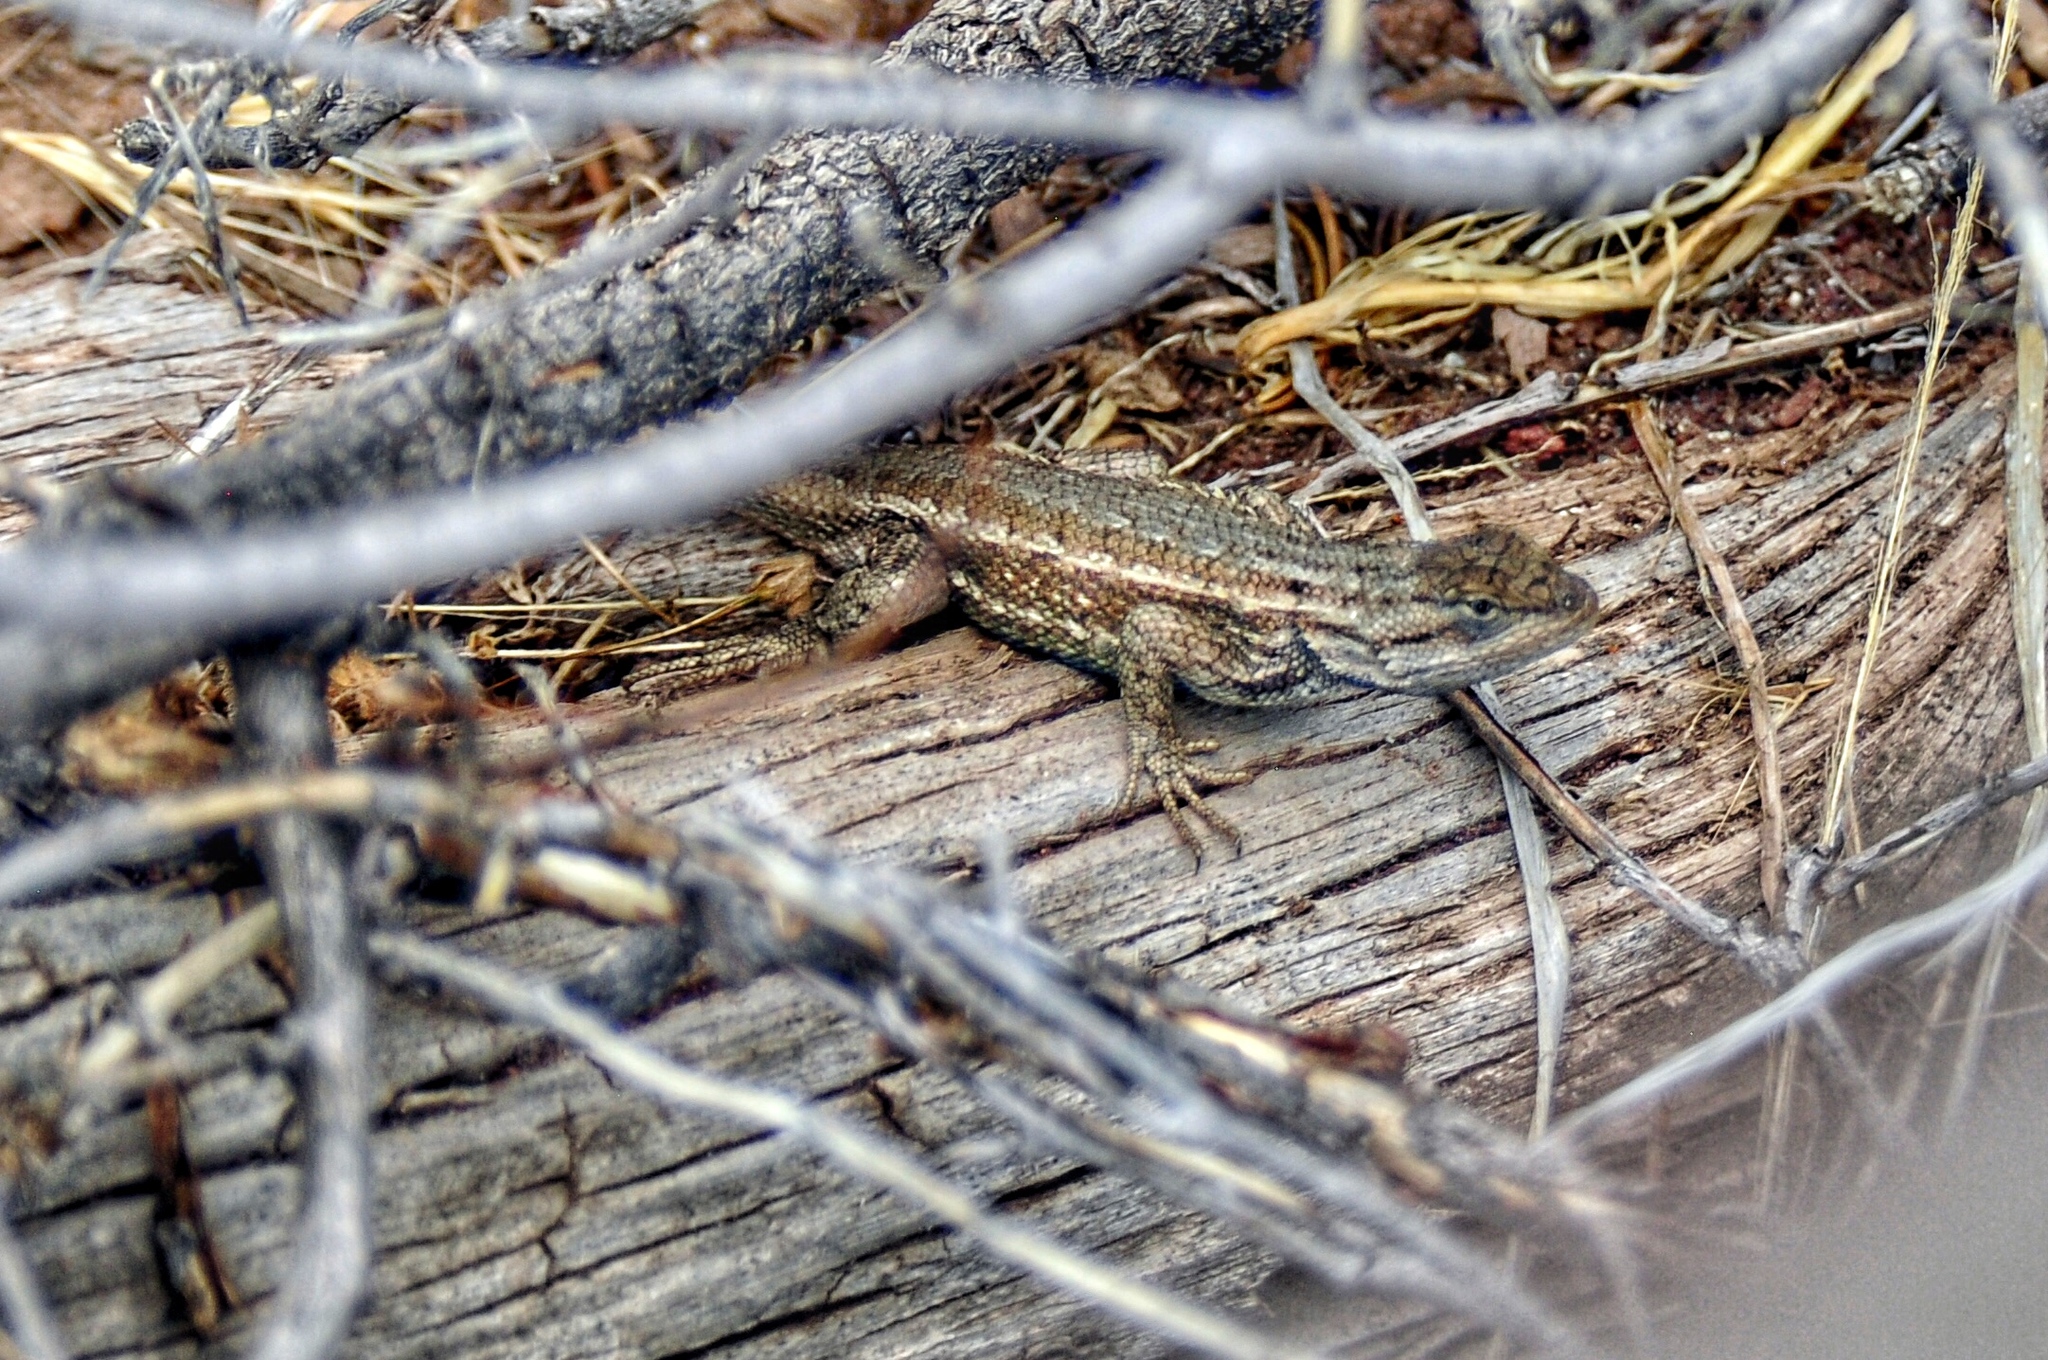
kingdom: Animalia
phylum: Chordata
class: Squamata
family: Phrynosomatidae
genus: Sceloporus
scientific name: Sceloporus tristichus
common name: Plateau fence lizard
